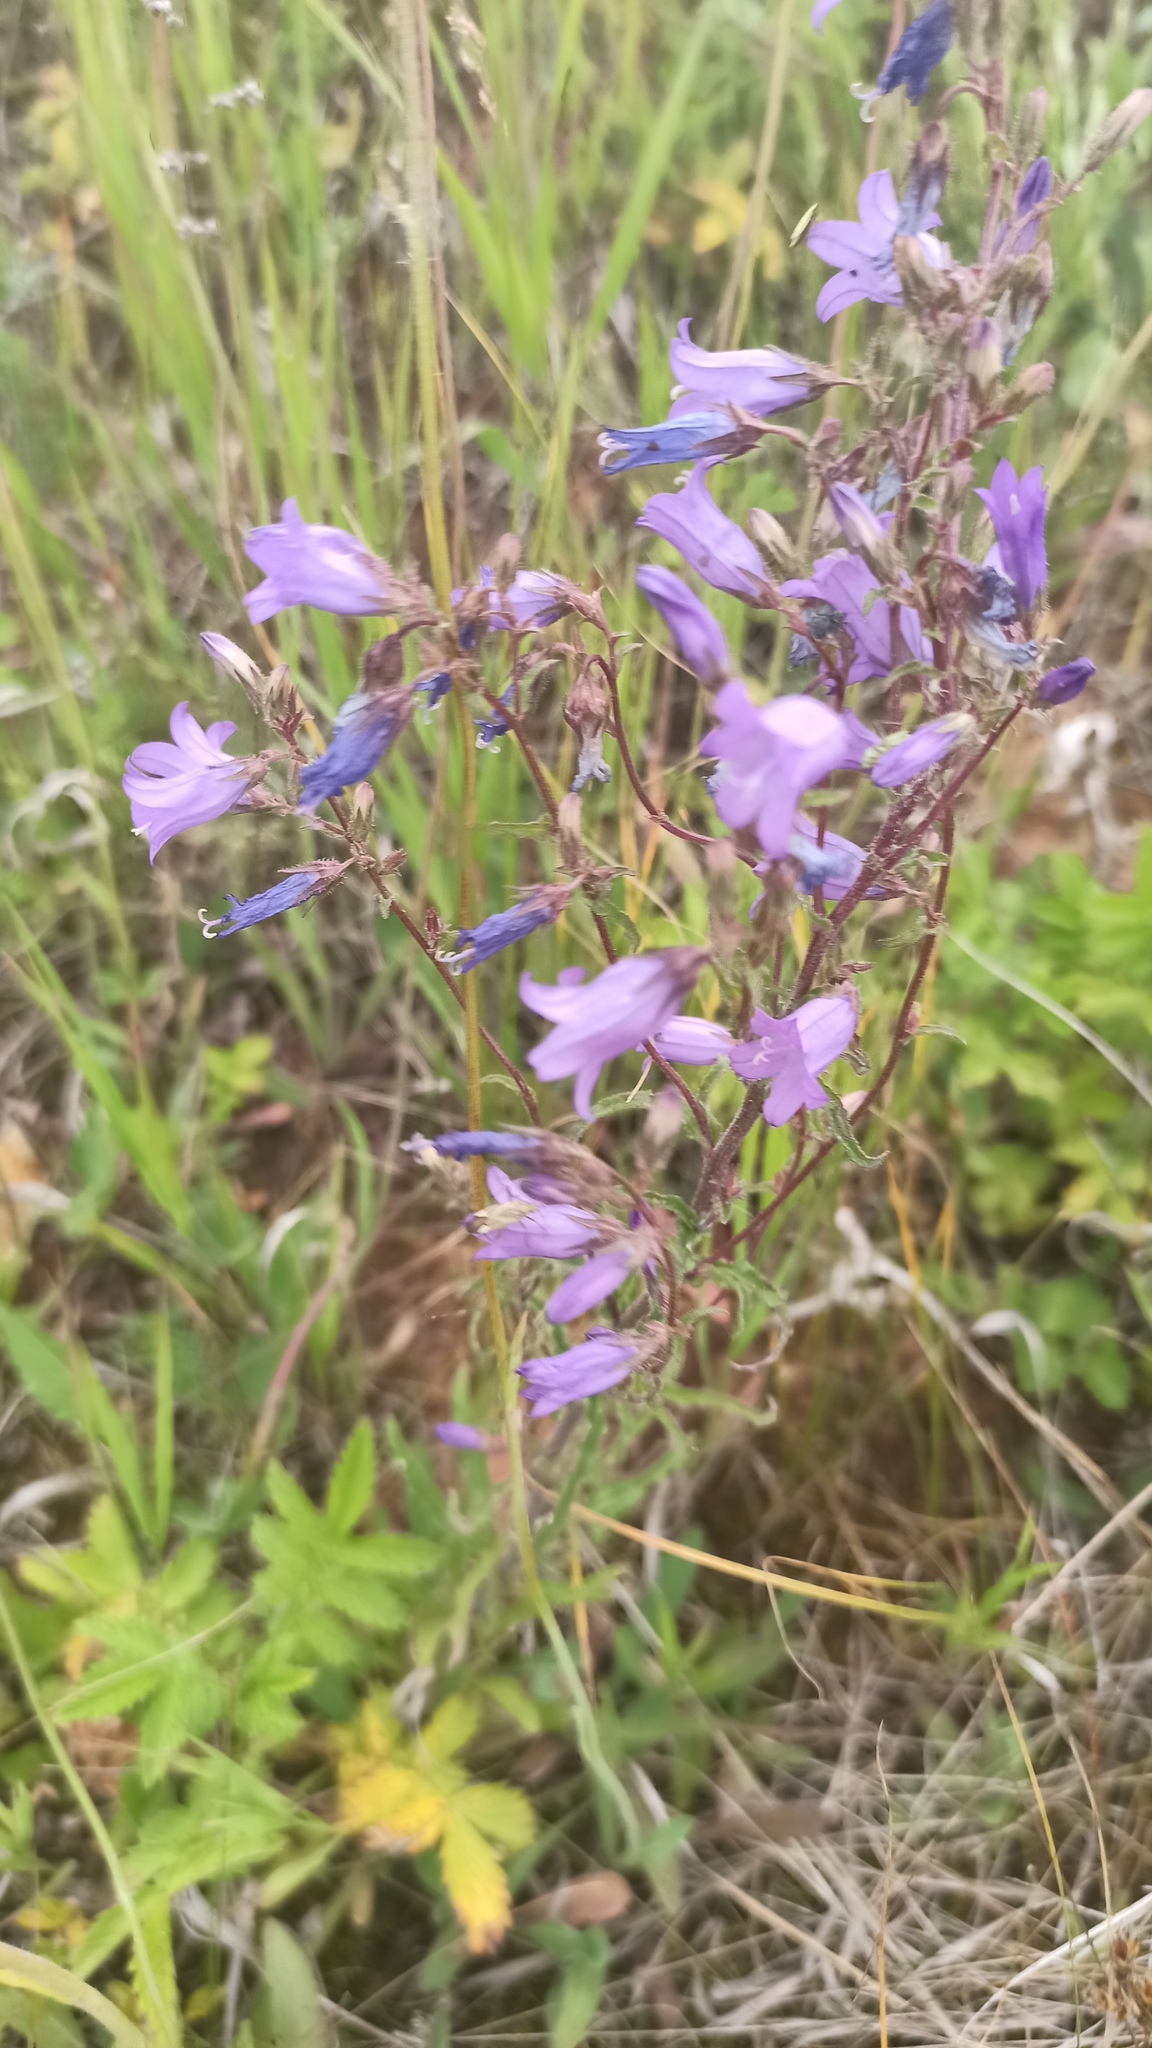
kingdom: Plantae
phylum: Tracheophyta
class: Magnoliopsida
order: Asterales
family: Campanulaceae
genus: Campanula
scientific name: Campanula sibirica
